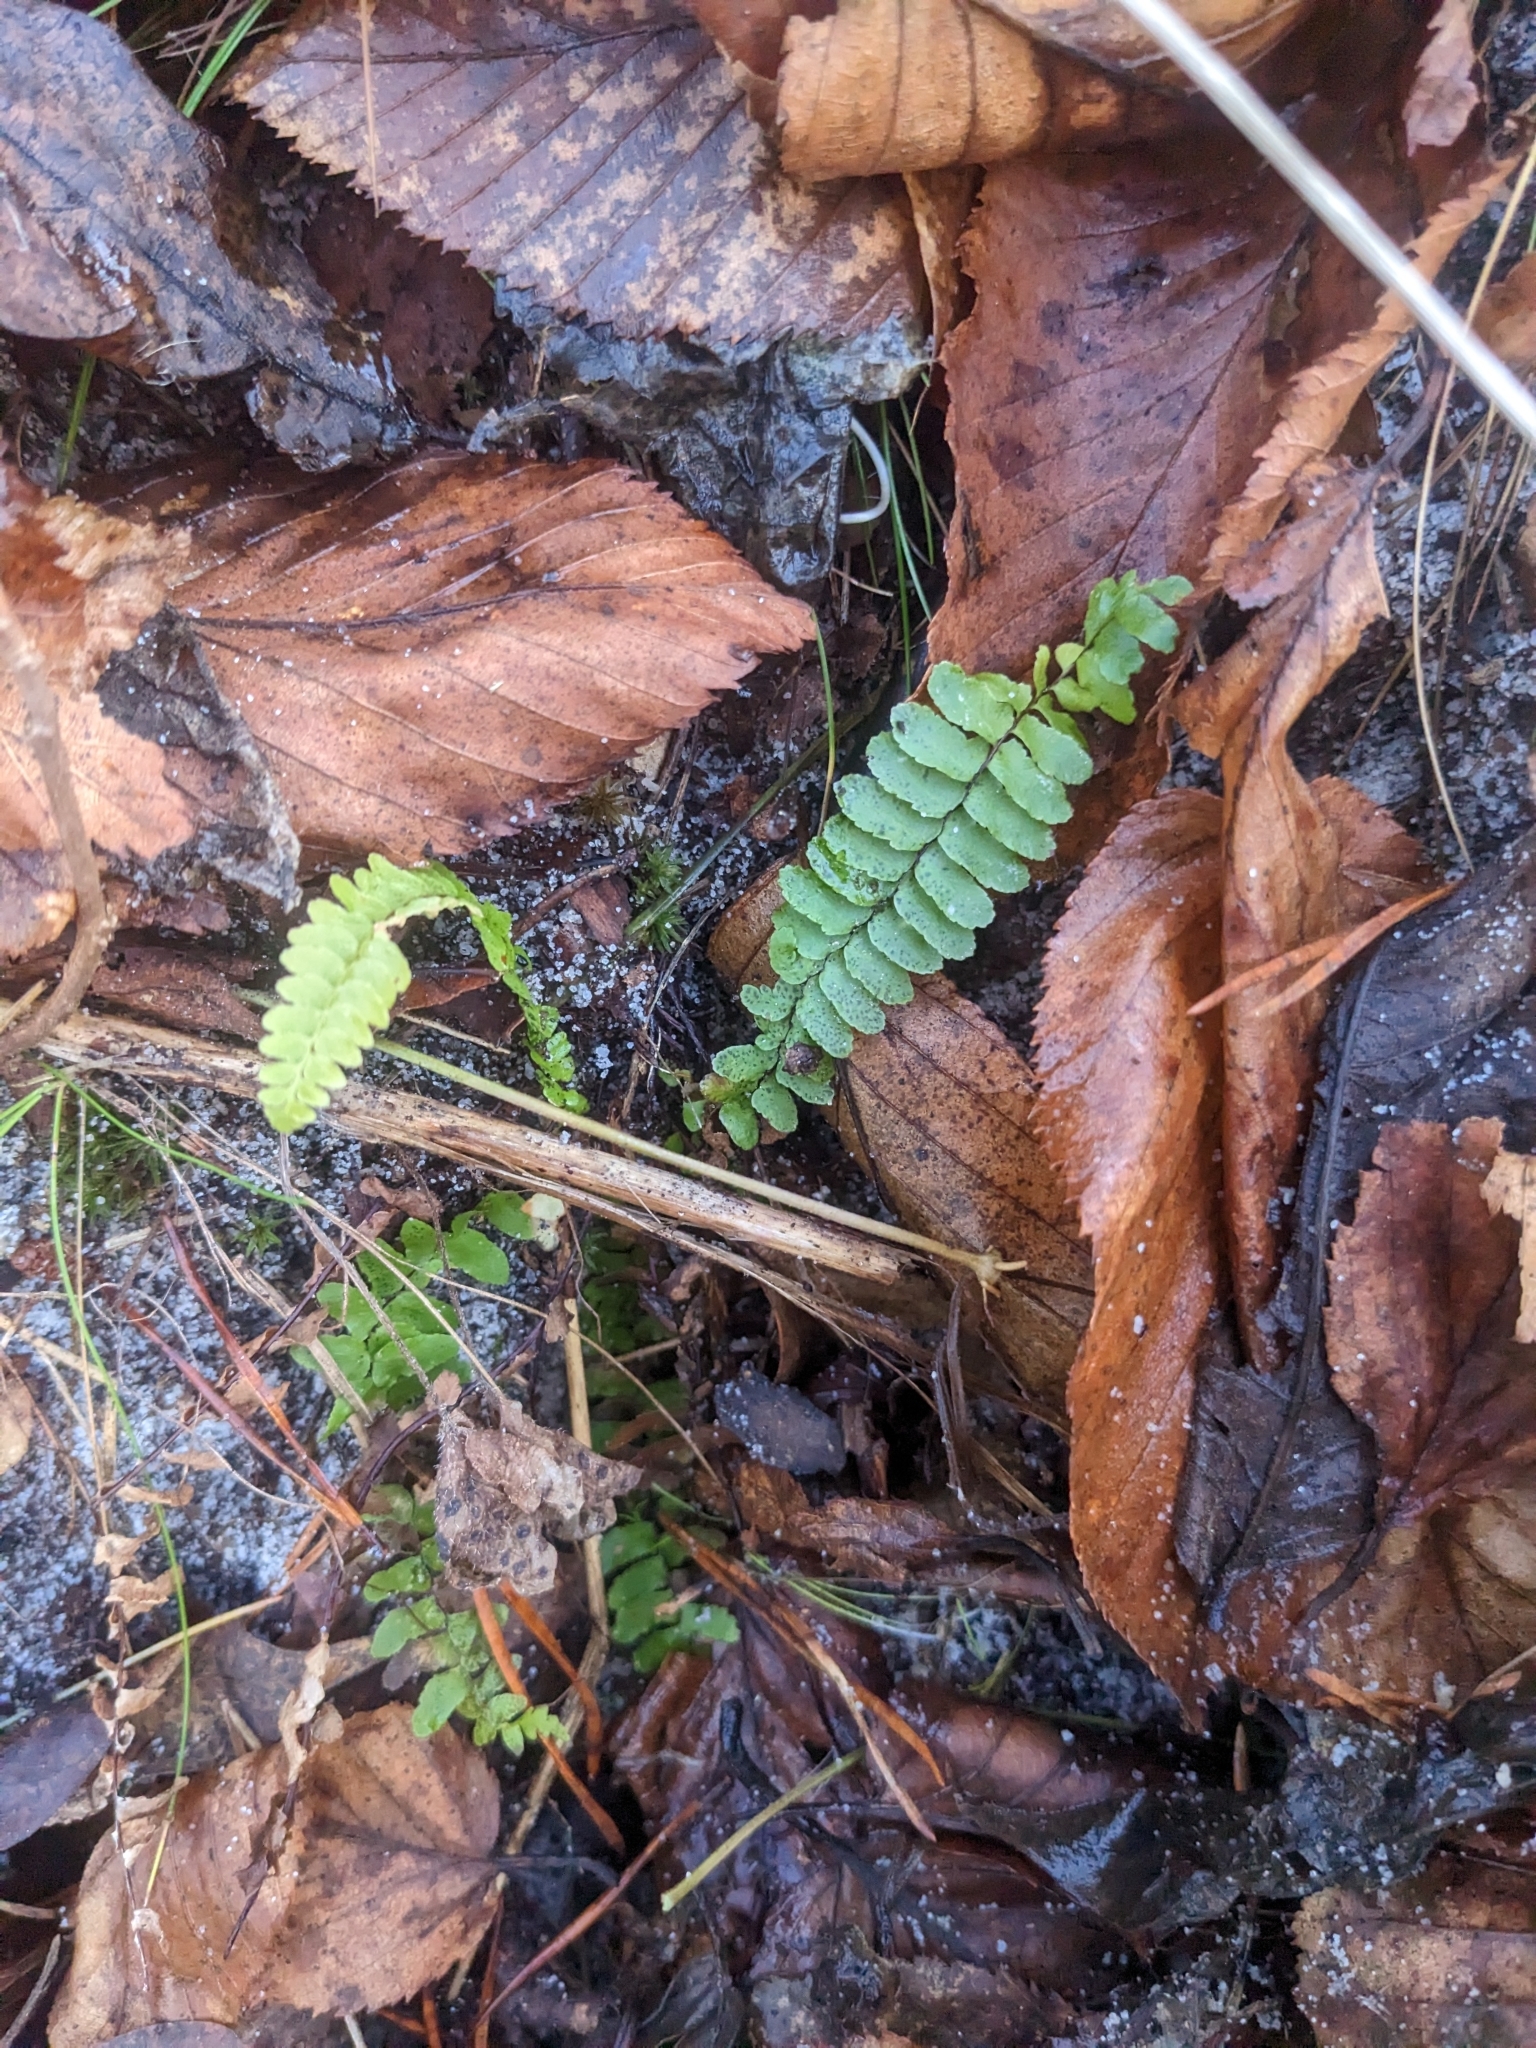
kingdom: Plantae
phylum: Tracheophyta
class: Polypodiopsida
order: Polypodiales
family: Aspleniaceae
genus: Asplenium
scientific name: Asplenium platyneuron
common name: Ebony spleenwort
